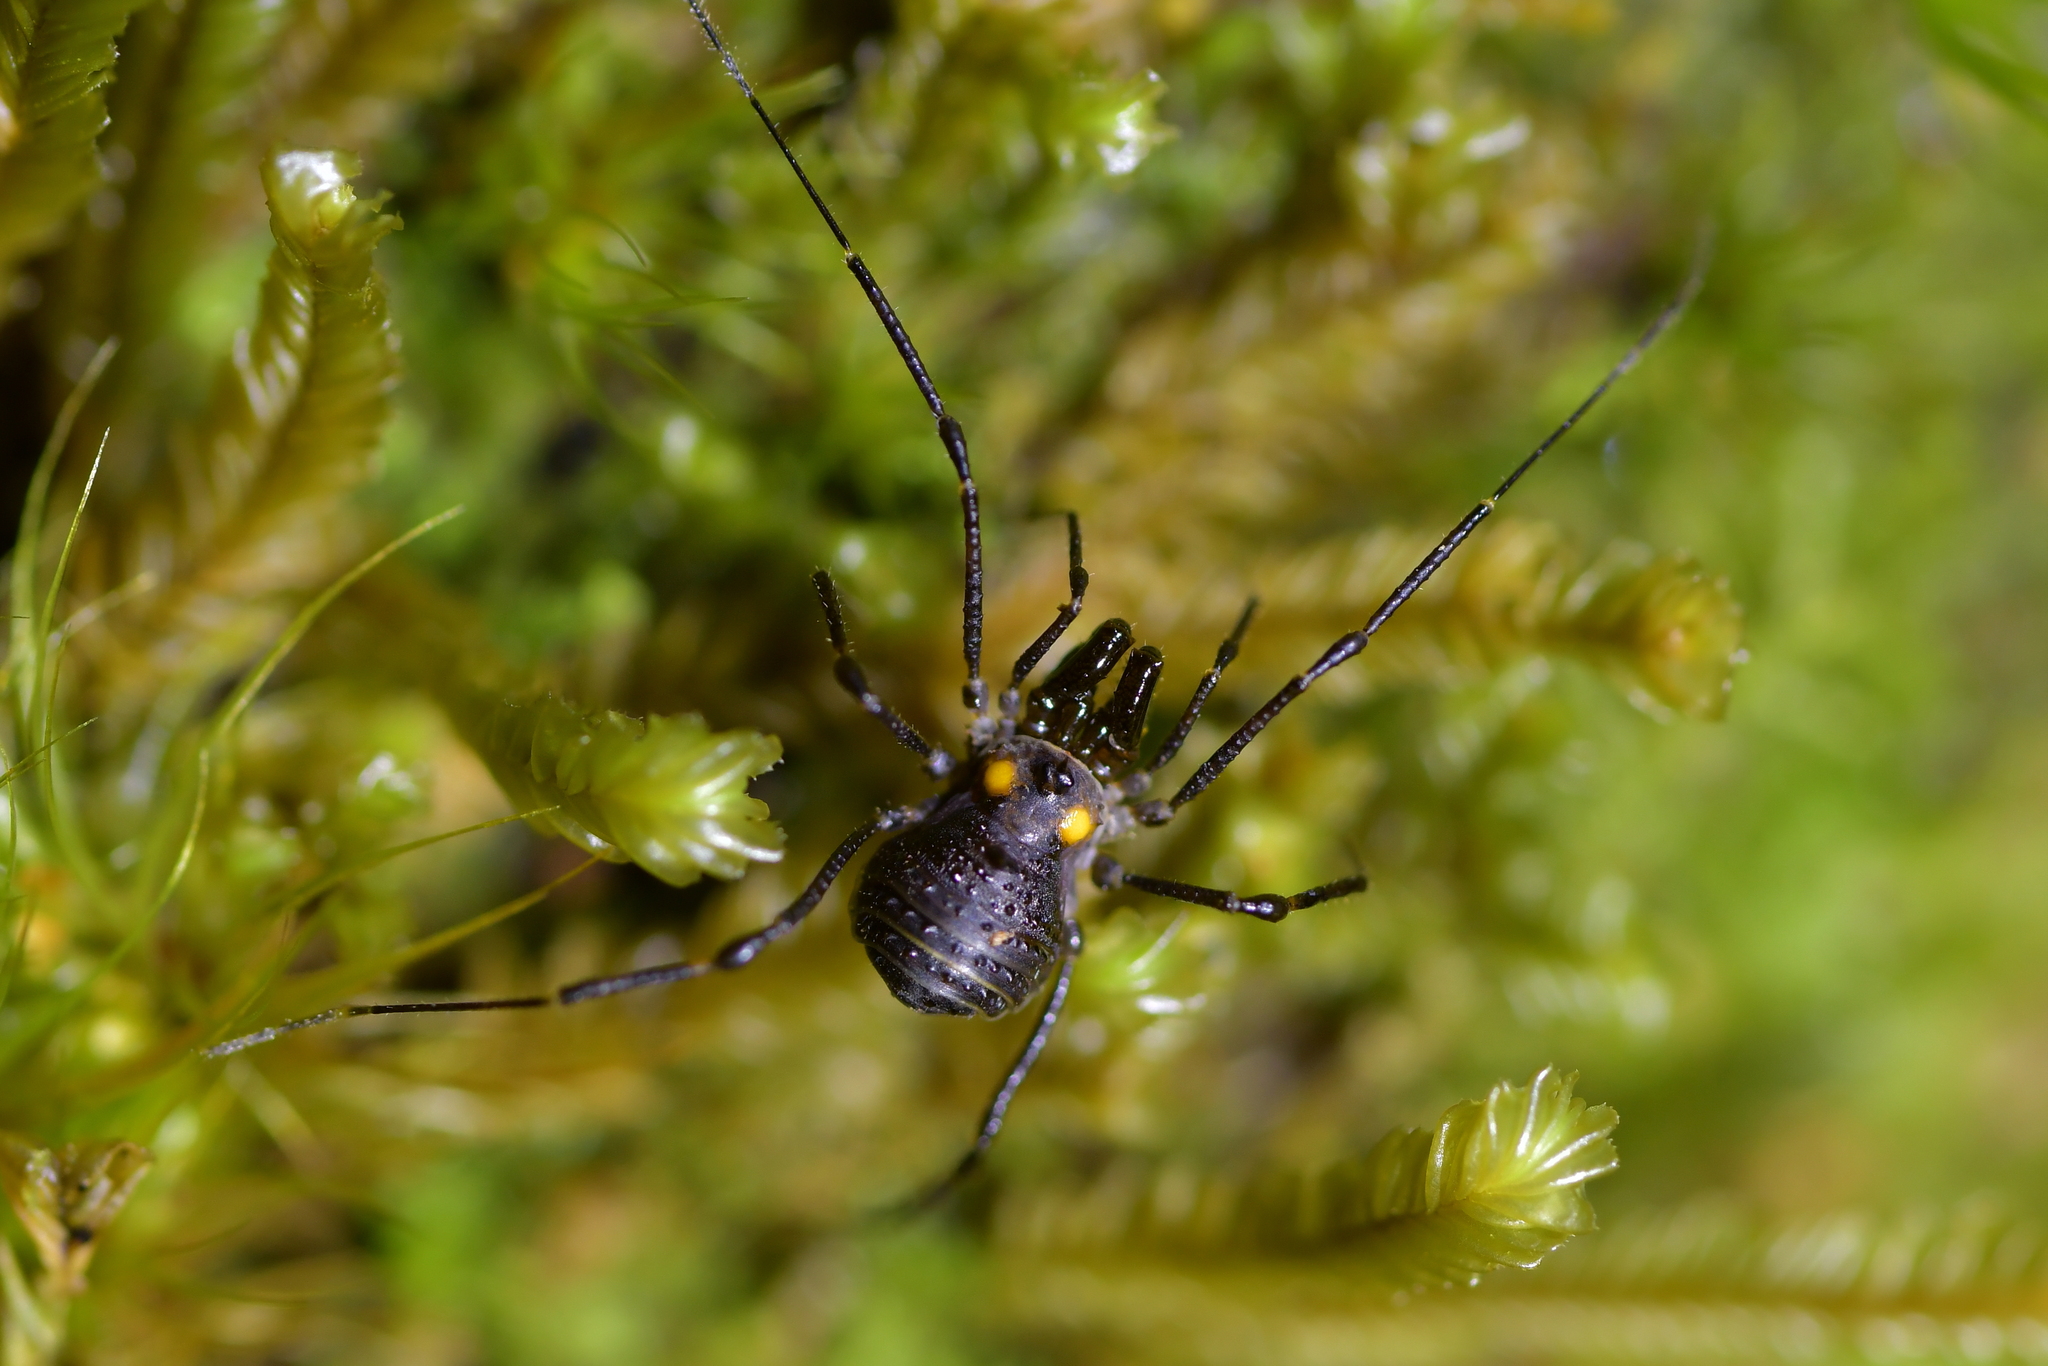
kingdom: Animalia
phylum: Arthropoda
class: Arachnida
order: Opiliones
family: Triaenonychidae
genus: Hendea
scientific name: Hendea myersi
